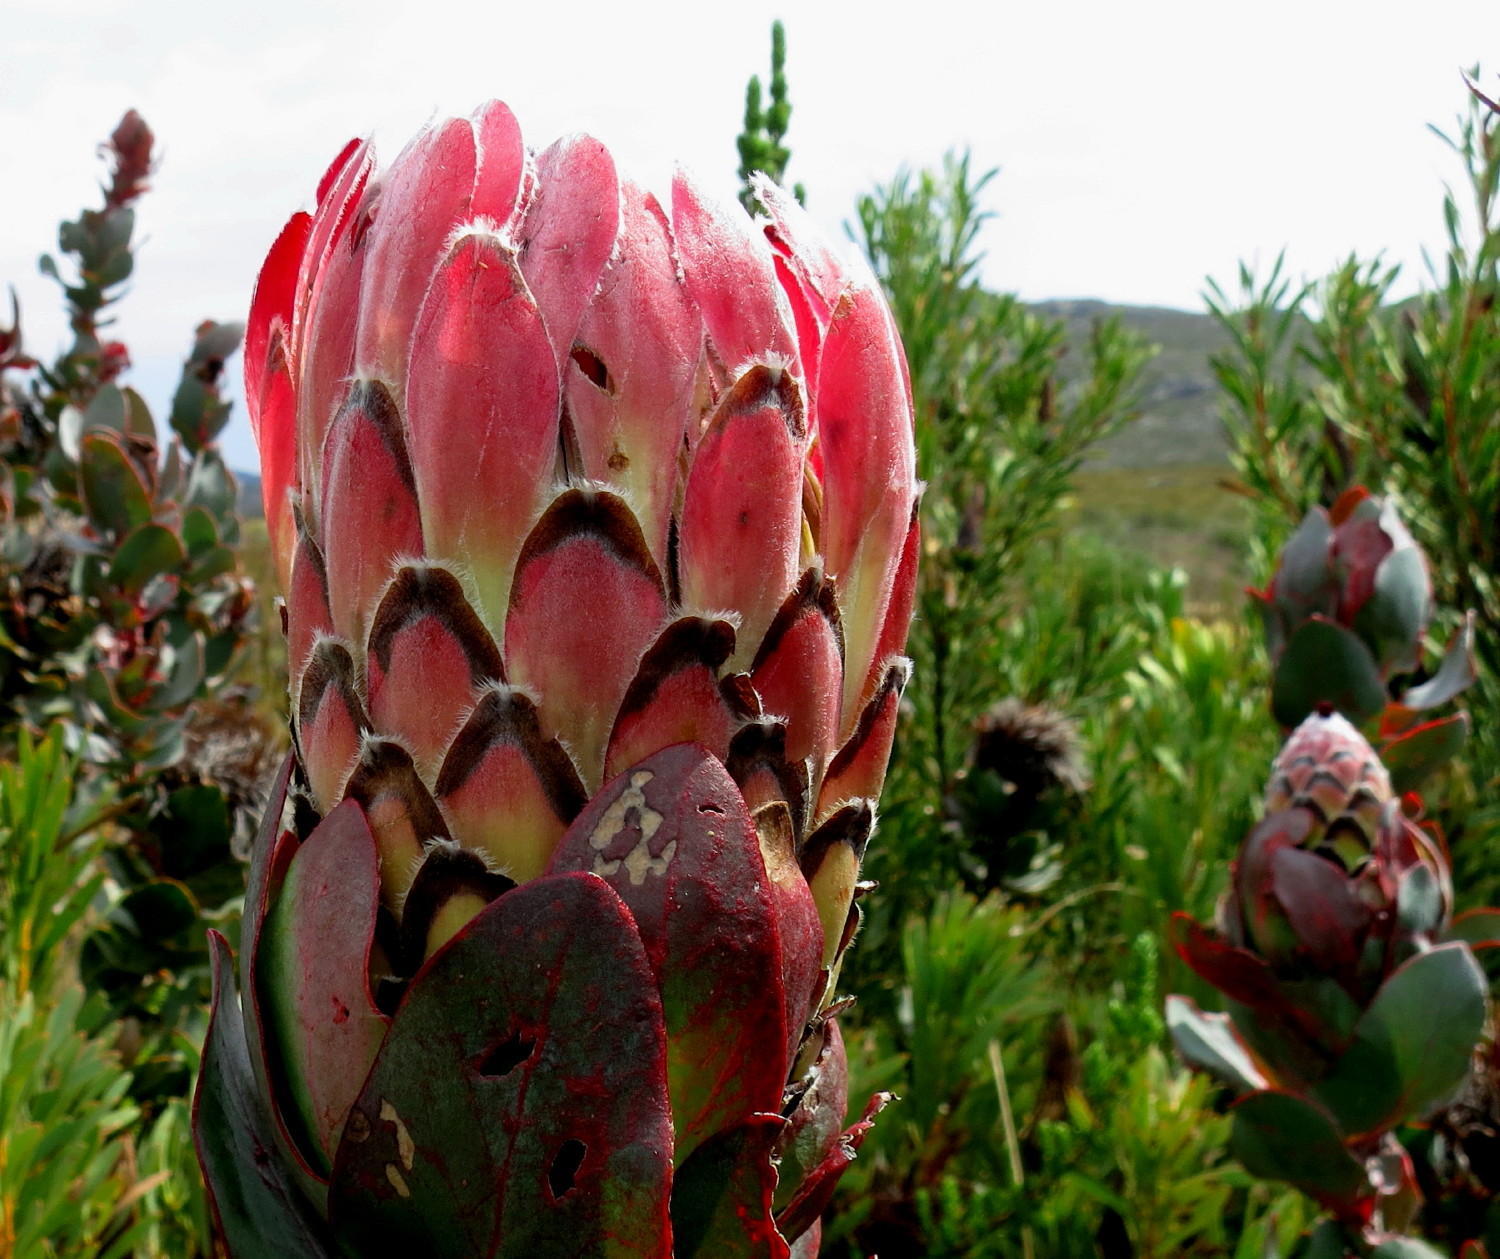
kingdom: Plantae
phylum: Tracheophyta
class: Magnoliopsida
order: Proteales
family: Proteaceae
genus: Protea
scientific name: Protea eximia
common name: Broad-leaved sugarbush
